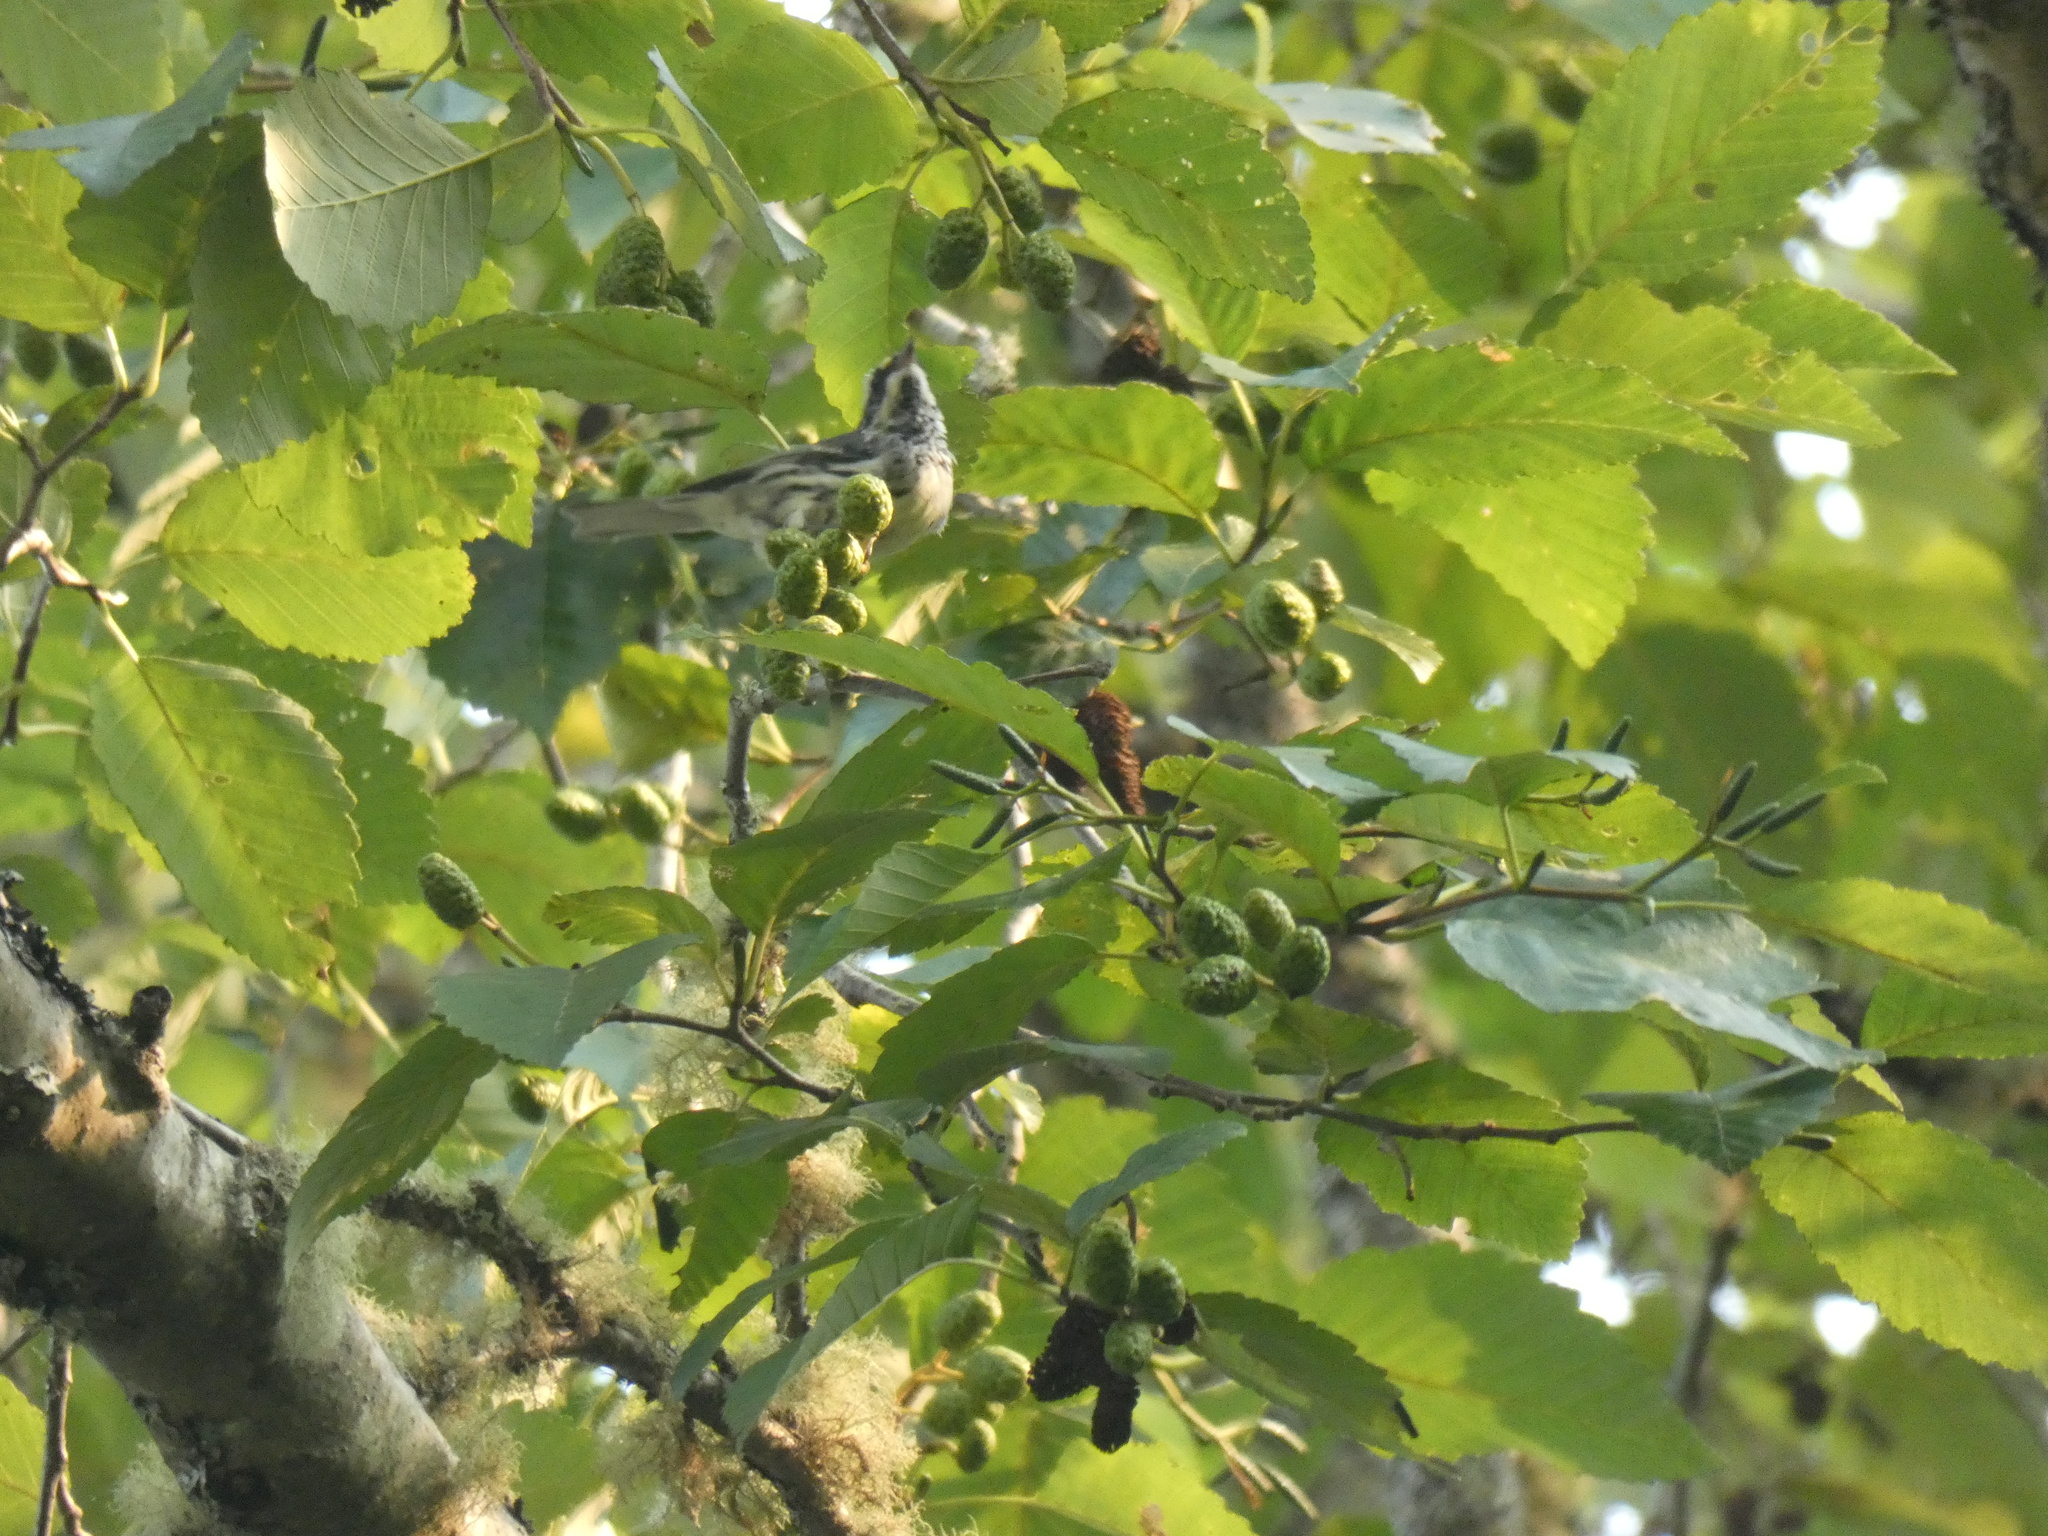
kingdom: Animalia
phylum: Chordata
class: Aves
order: Passeriformes
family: Parulidae
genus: Setophaga
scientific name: Setophaga nigrescens
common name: Black-throated gray warbler
